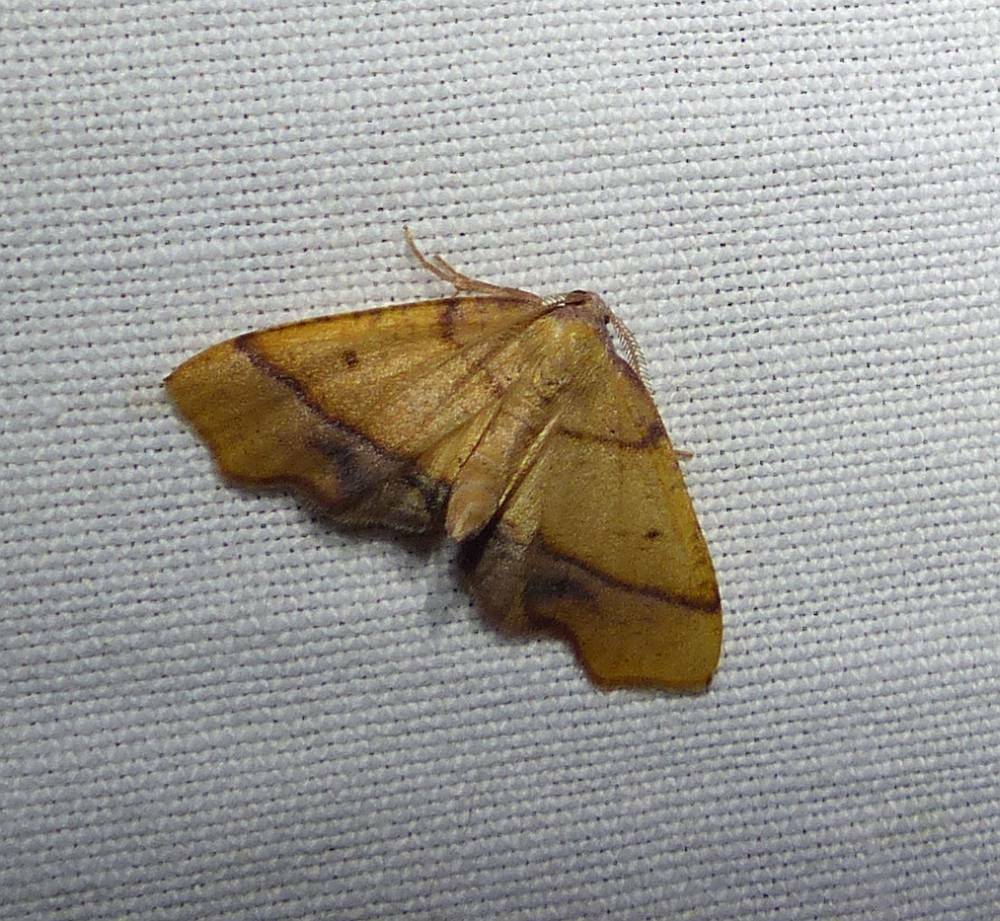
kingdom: Animalia
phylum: Arthropoda
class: Insecta
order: Lepidoptera
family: Geometridae
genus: Plagodis
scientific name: Plagodis phlogosaria
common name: Straight-lined plagodis
